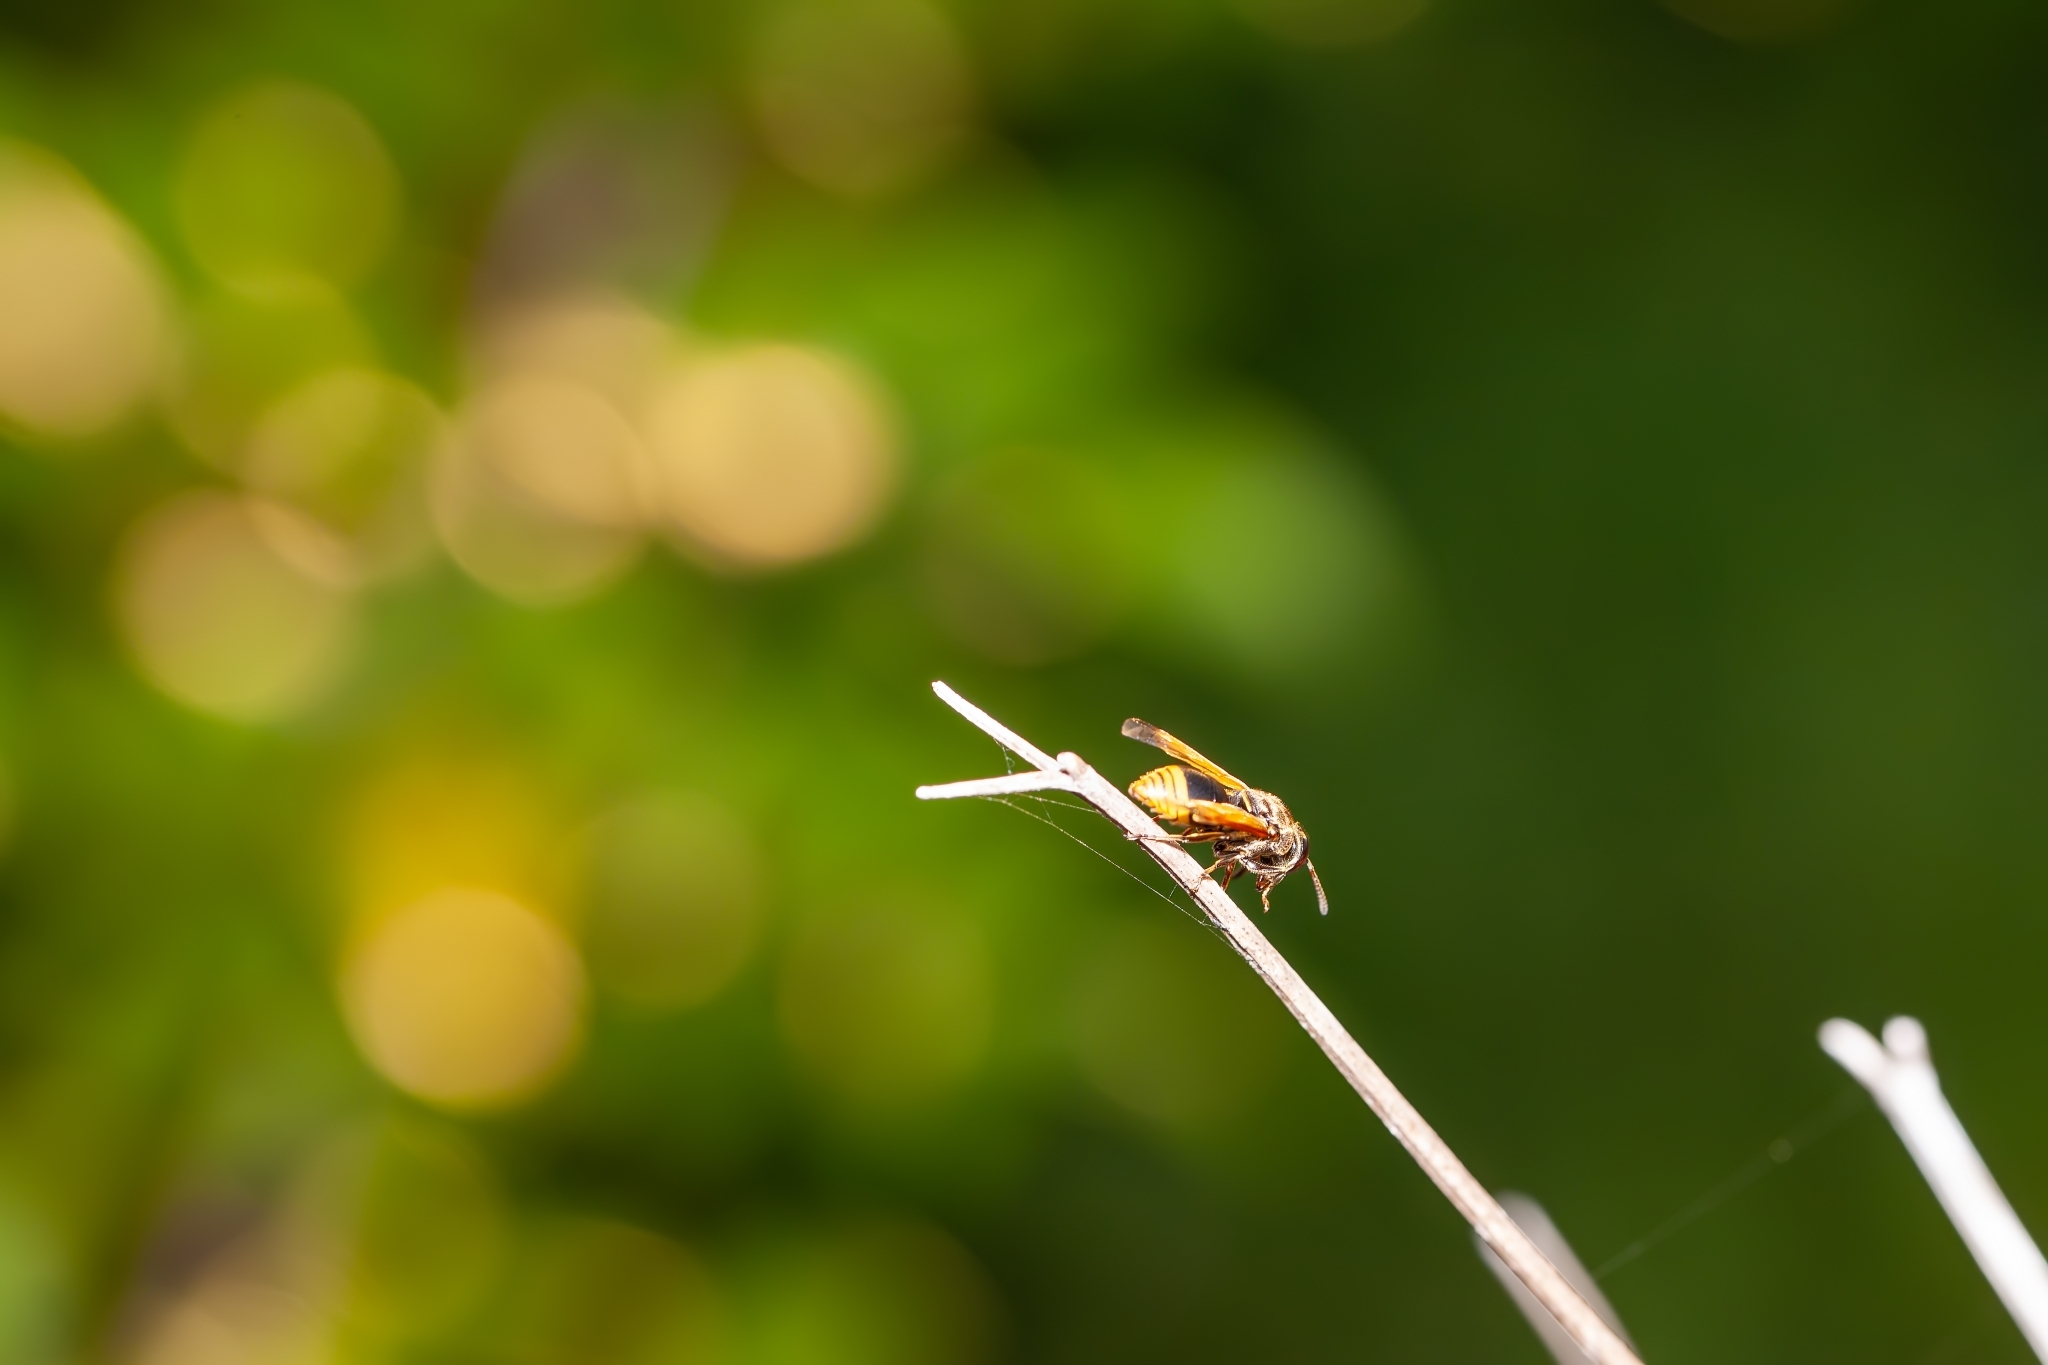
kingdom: Animalia
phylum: Arthropoda
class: Insecta
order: Hymenoptera
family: Eumenidae
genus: Pachodynerus
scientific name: Pachodynerus nasidens
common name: Key hole wasp
